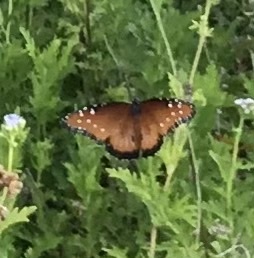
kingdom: Animalia
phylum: Arthropoda
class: Insecta
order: Lepidoptera
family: Nymphalidae
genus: Danaus
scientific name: Danaus gilippus
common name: Queen
